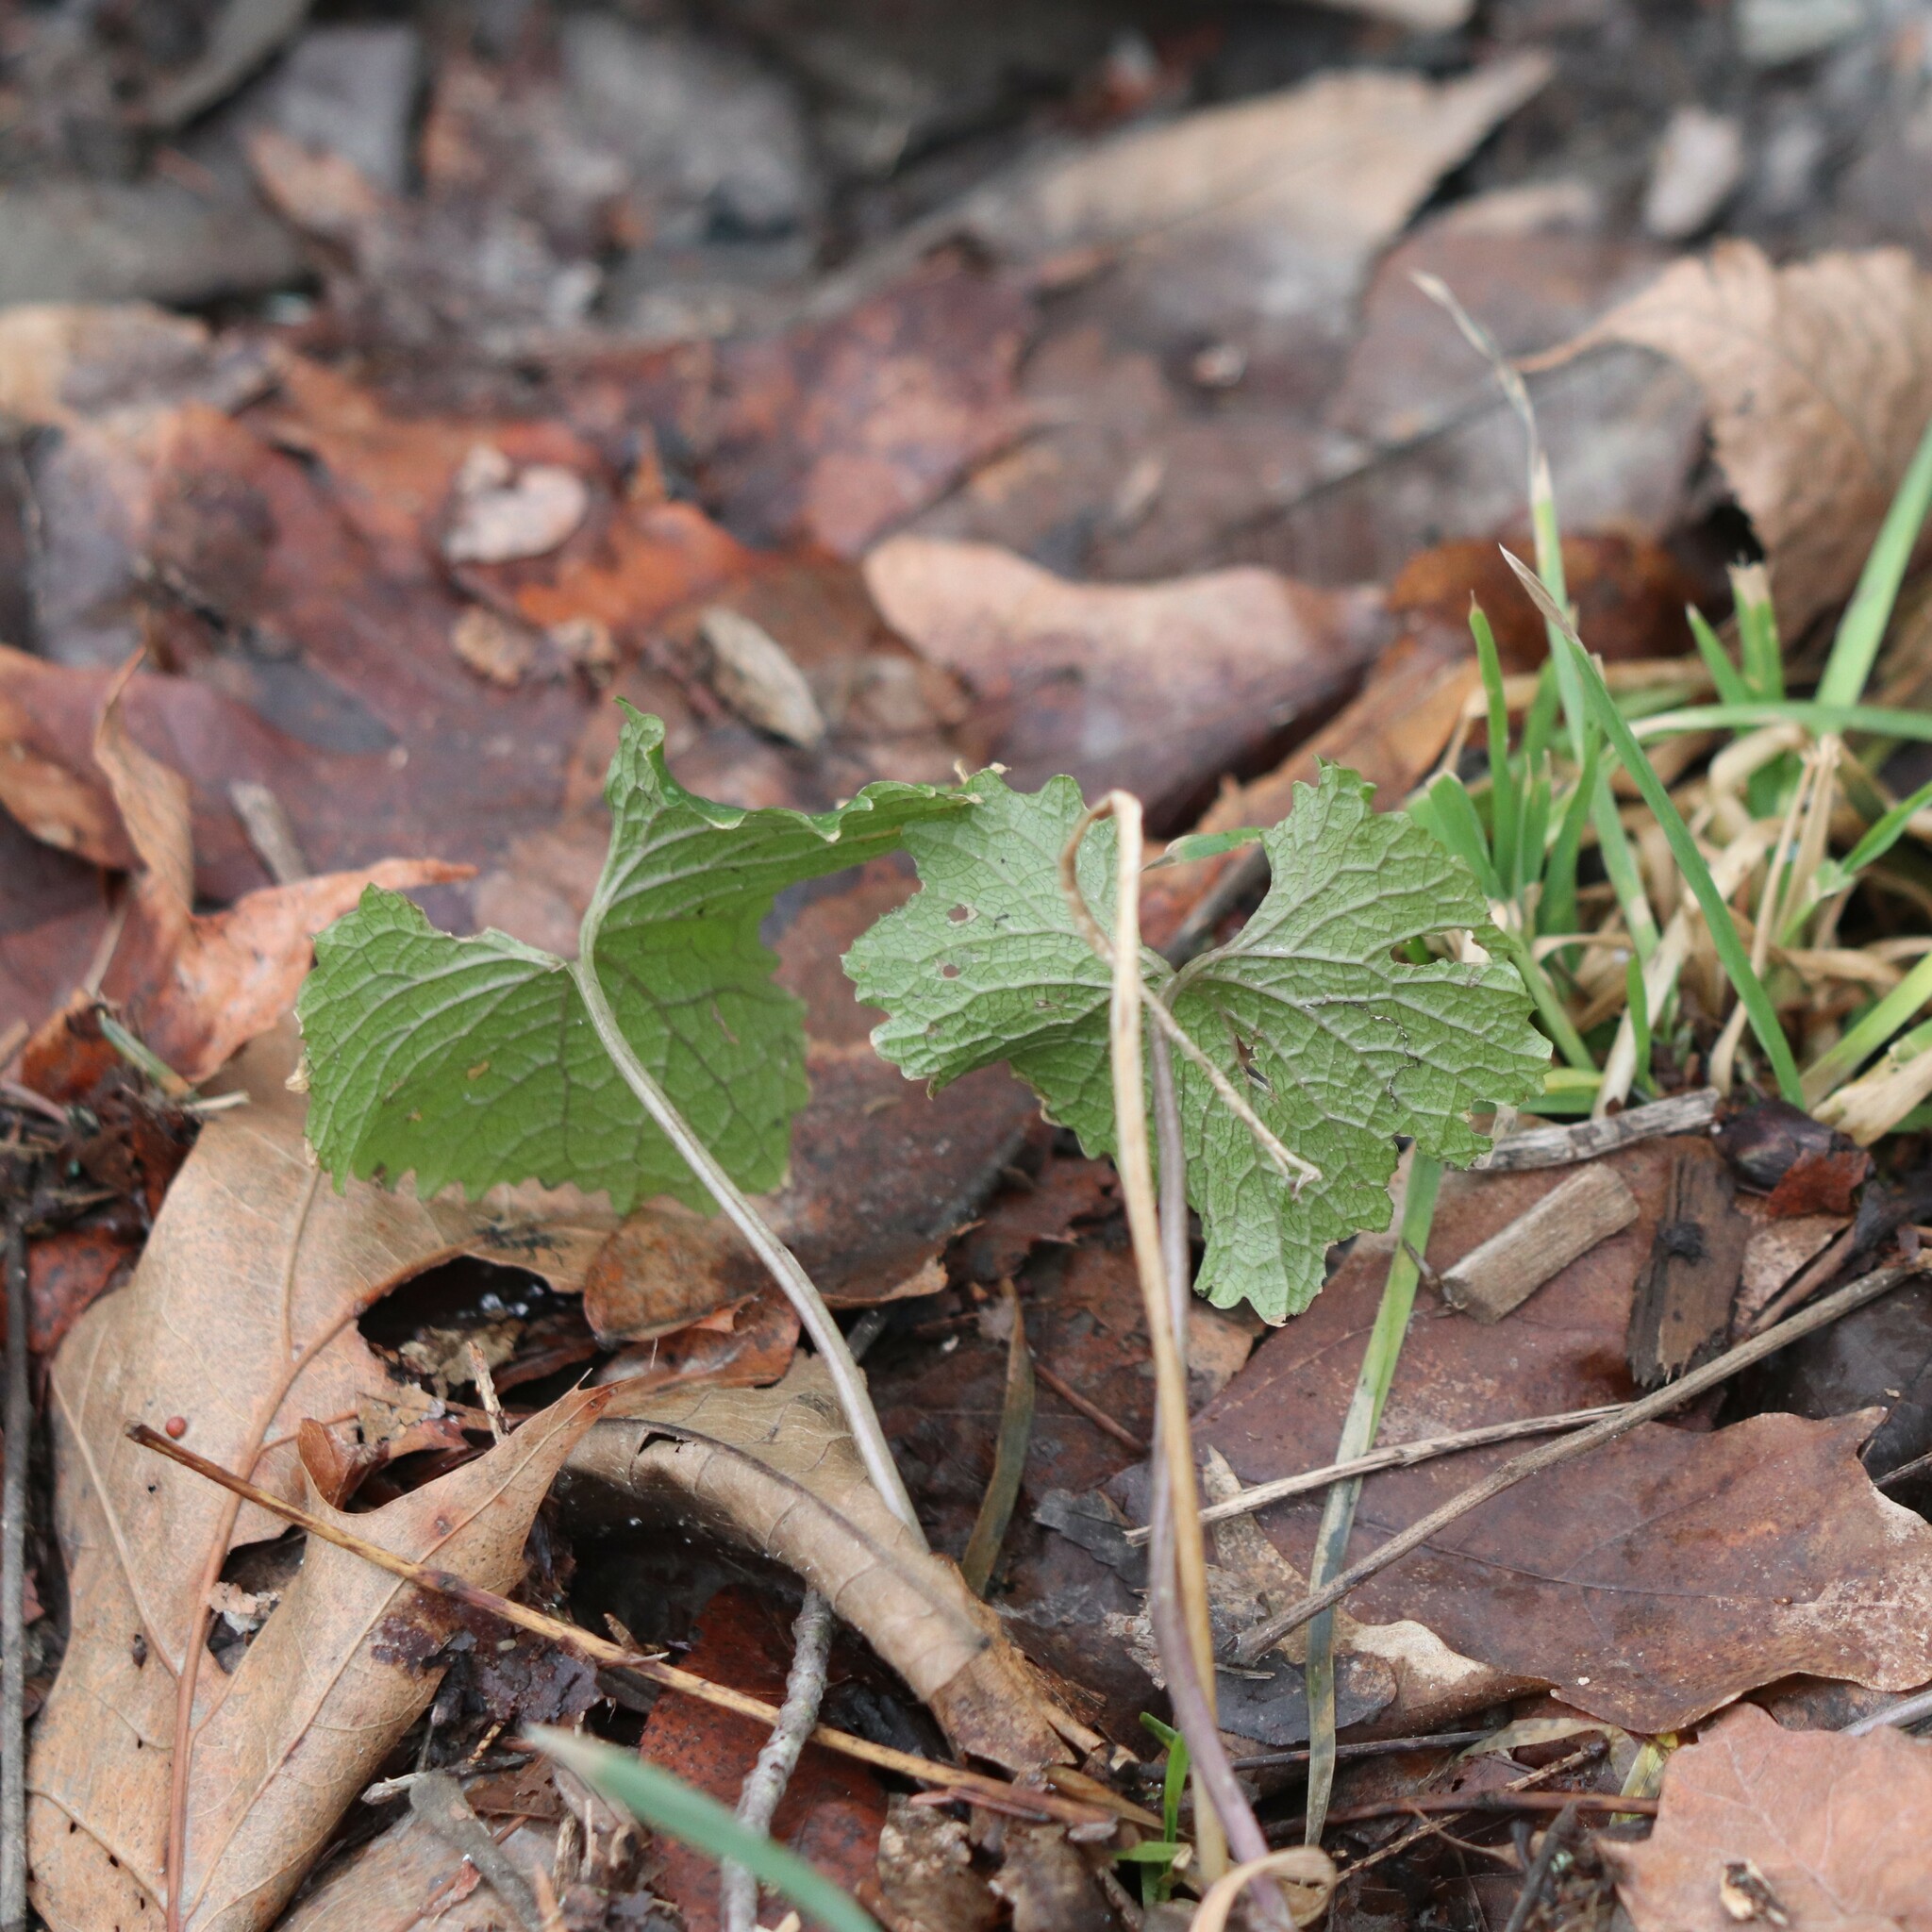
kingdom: Plantae
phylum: Tracheophyta
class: Magnoliopsida
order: Brassicales
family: Brassicaceae
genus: Alliaria
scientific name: Alliaria petiolata
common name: Garlic mustard
